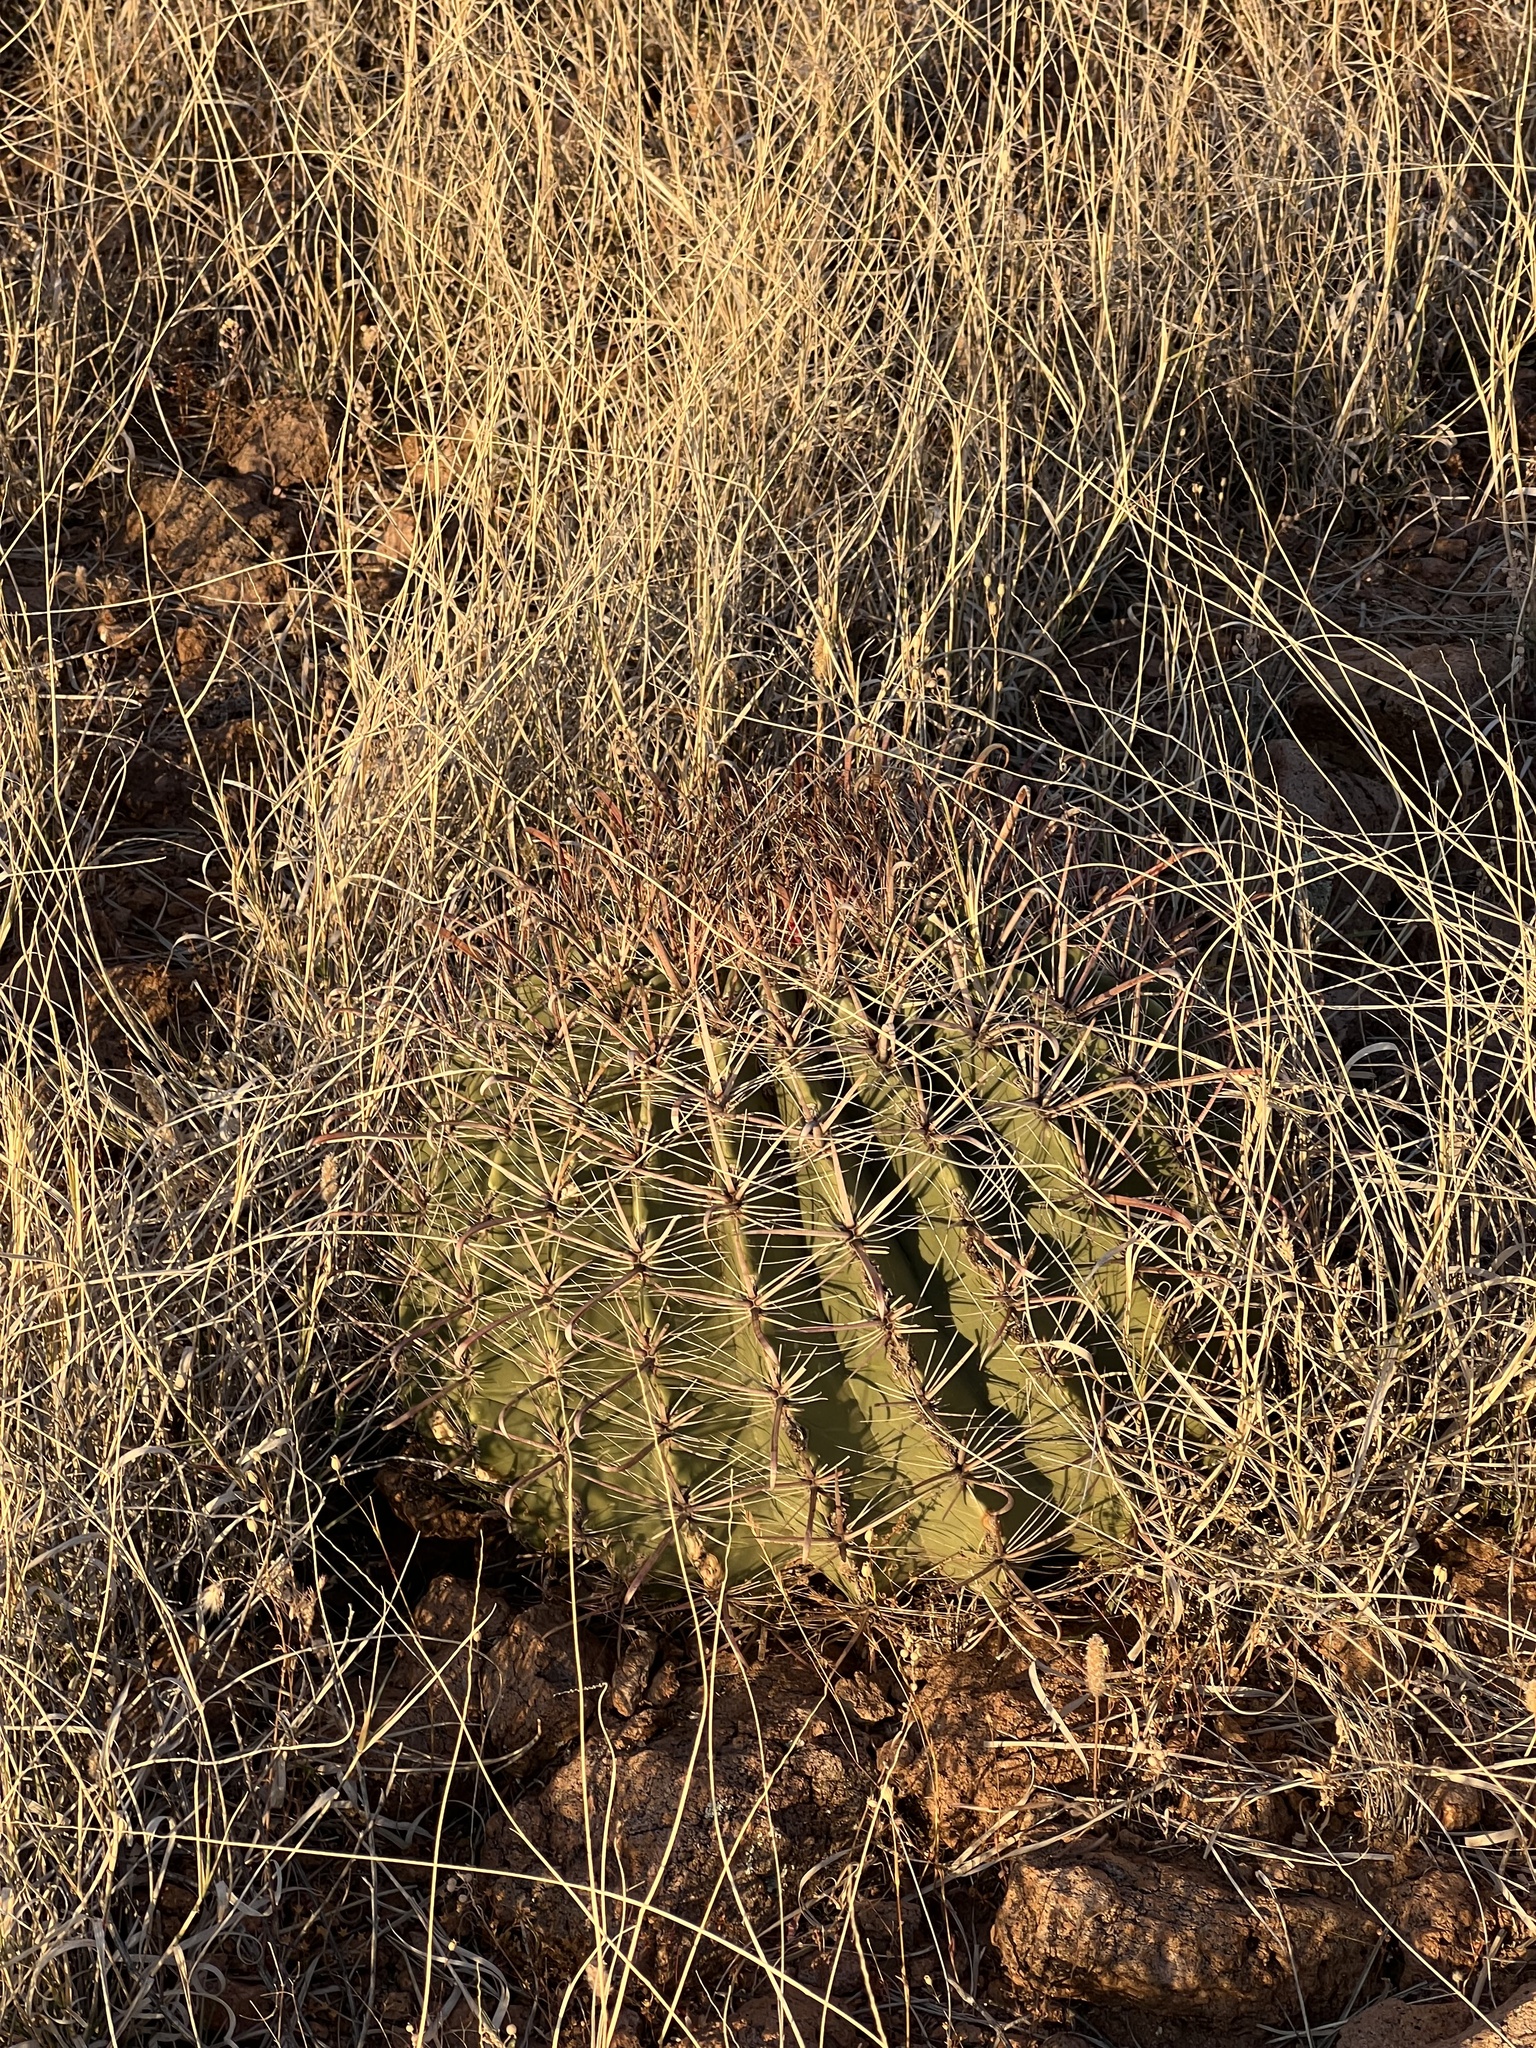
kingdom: Plantae
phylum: Tracheophyta
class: Magnoliopsida
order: Caryophyllales
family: Cactaceae
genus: Ferocactus
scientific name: Ferocactus wislizeni
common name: Candy barrel cactus
